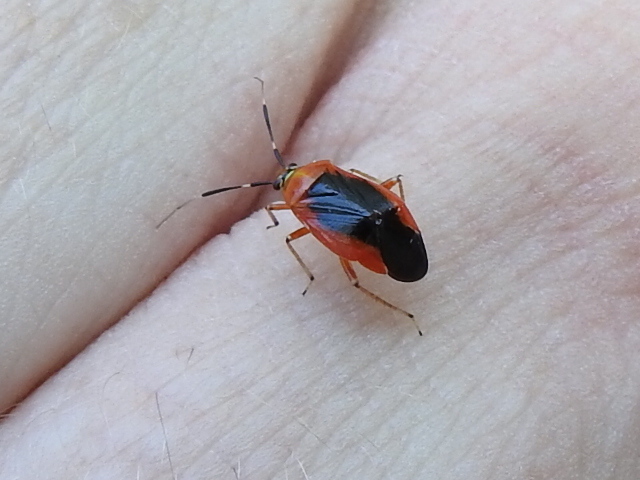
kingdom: Animalia
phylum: Arthropoda
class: Insecta
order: Hemiptera
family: Miridae
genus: Metriorrhynchomiris
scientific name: Metriorrhynchomiris dislocatus
